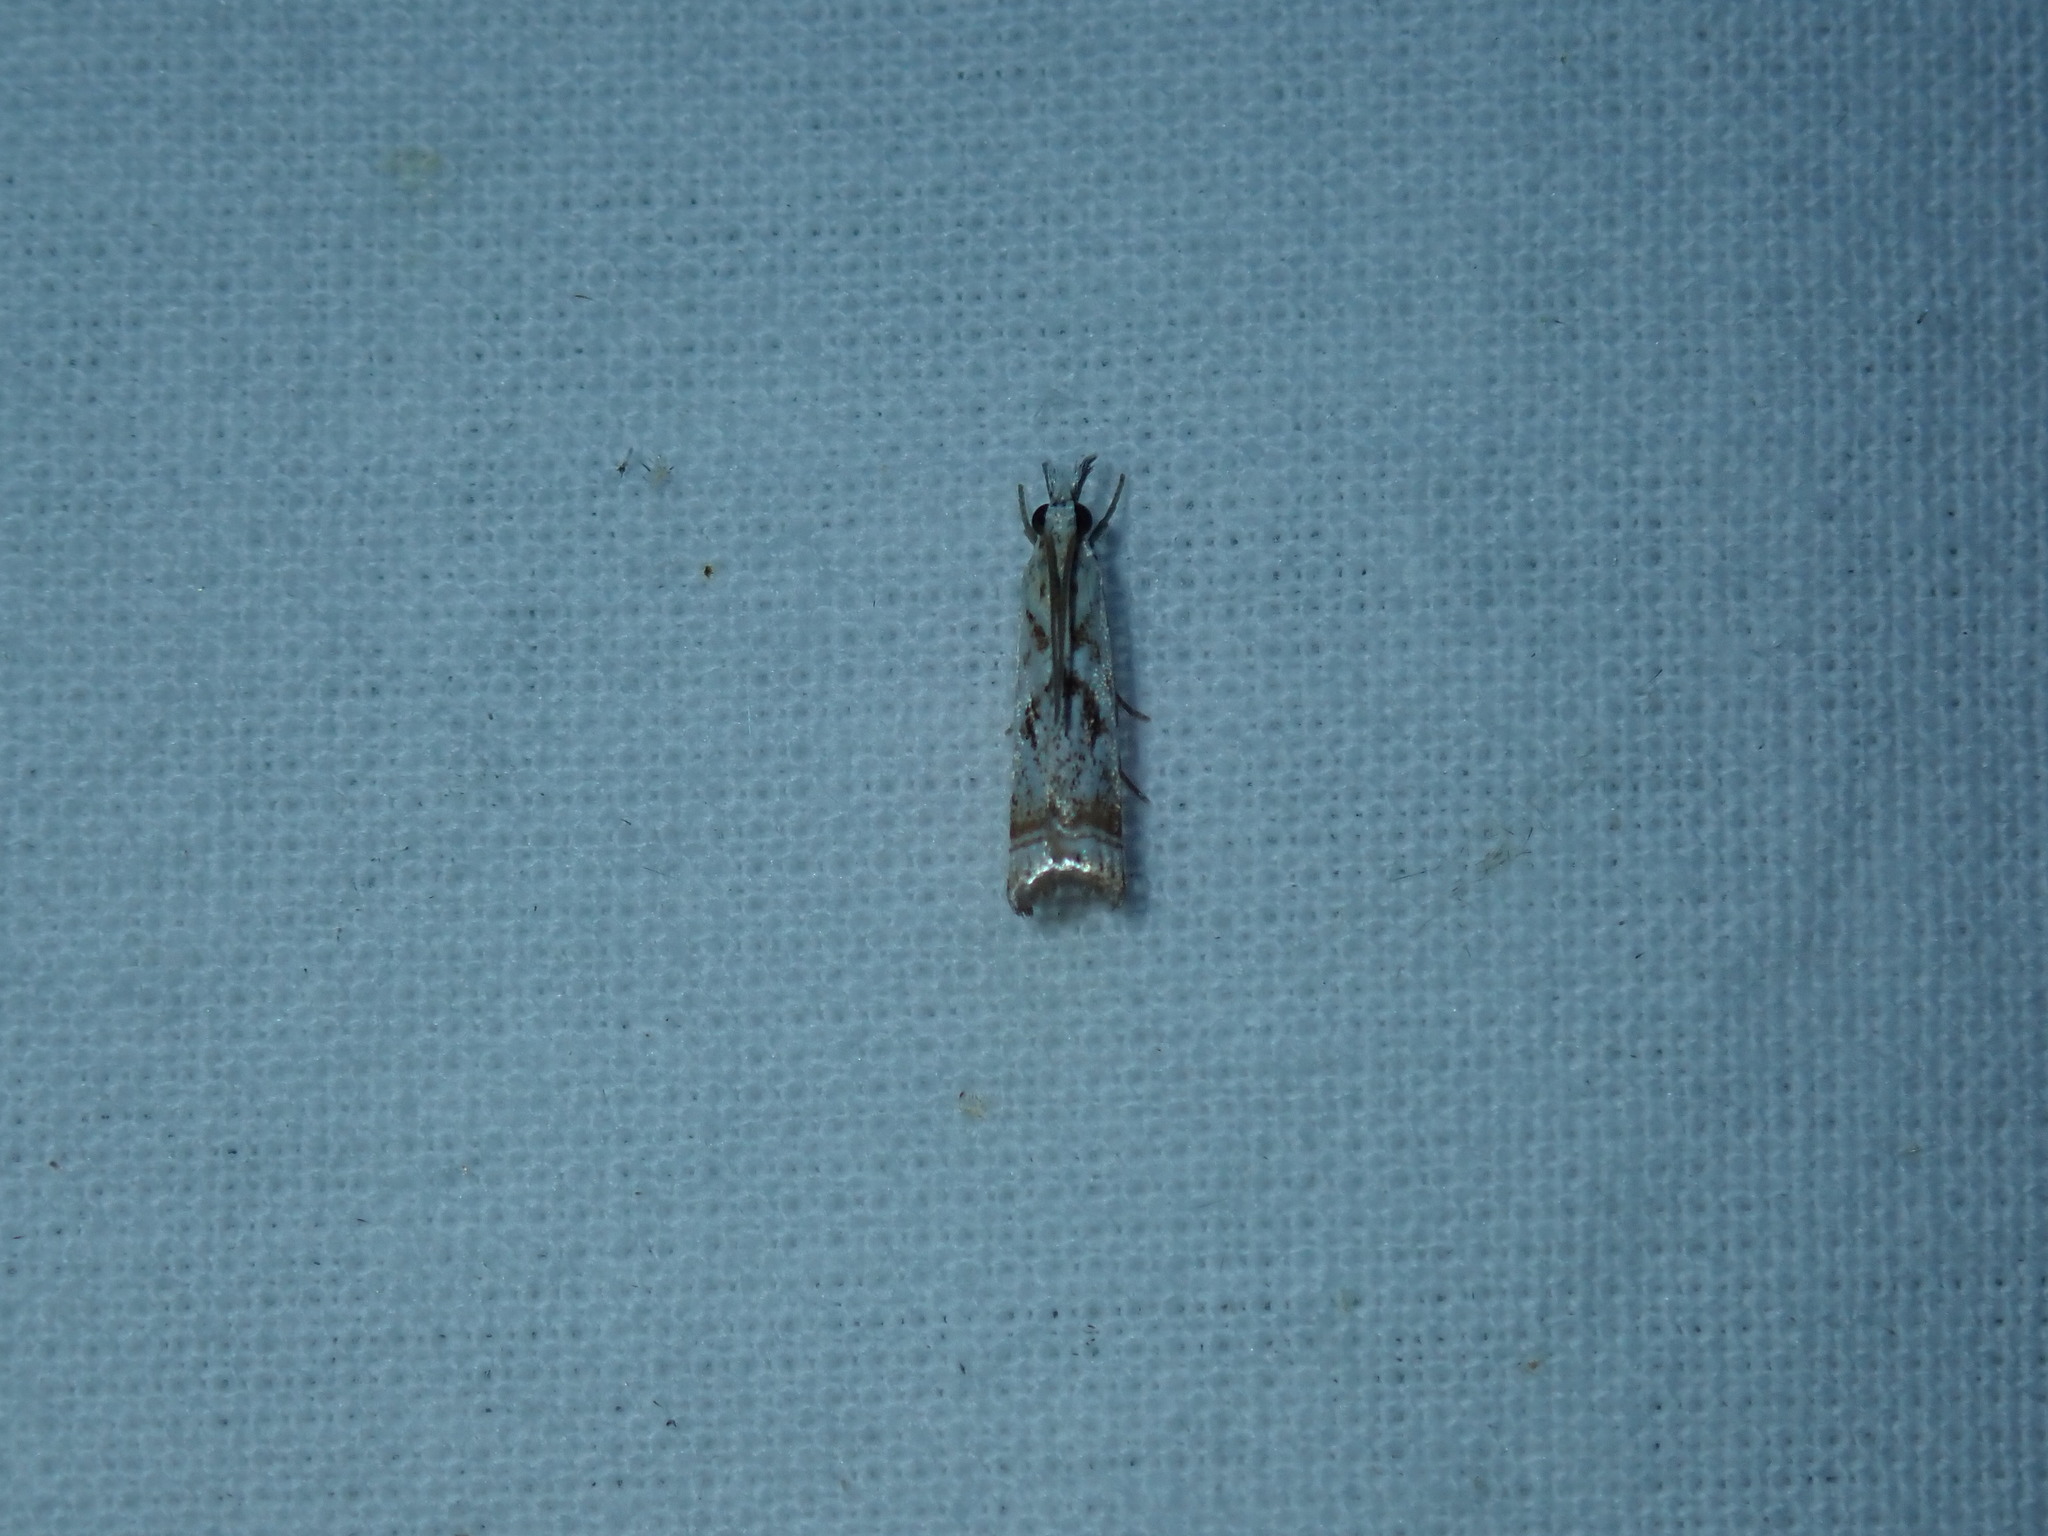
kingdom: Animalia
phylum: Arthropoda
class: Insecta
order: Lepidoptera
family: Crambidae
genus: Microcrambus
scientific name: Microcrambus elegans
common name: Elegant grass-veneer
